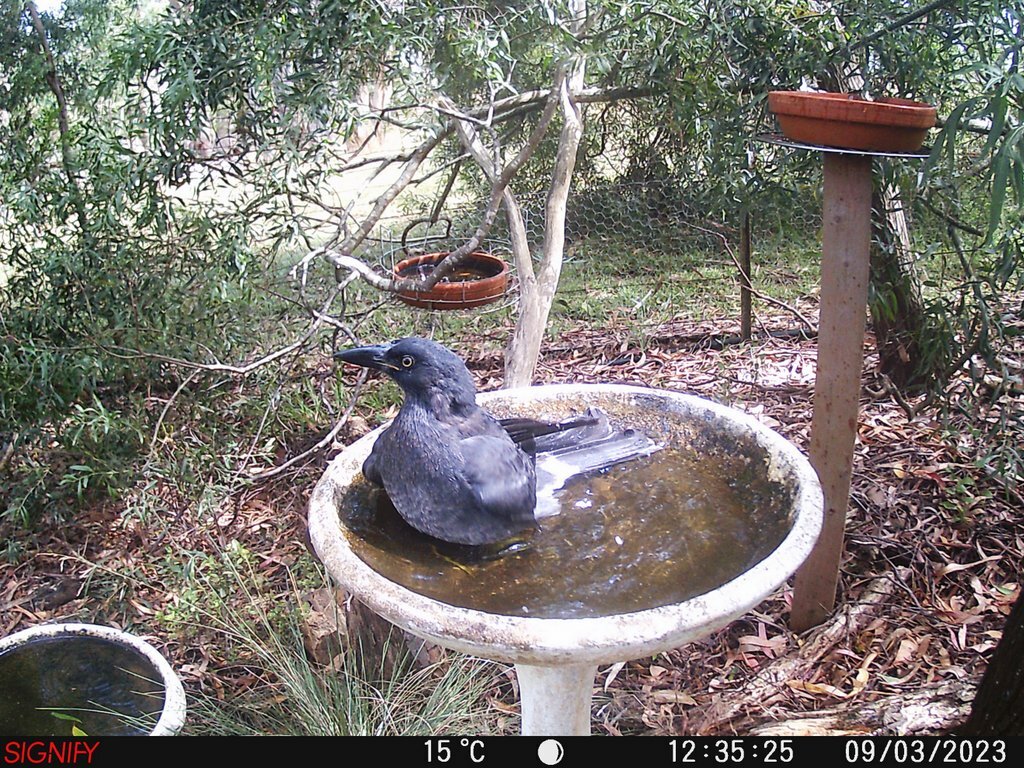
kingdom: Animalia
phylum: Chordata
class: Aves
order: Passeriformes
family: Cracticidae
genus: Strepera
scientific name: Strepera graculina
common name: Pied currawong
